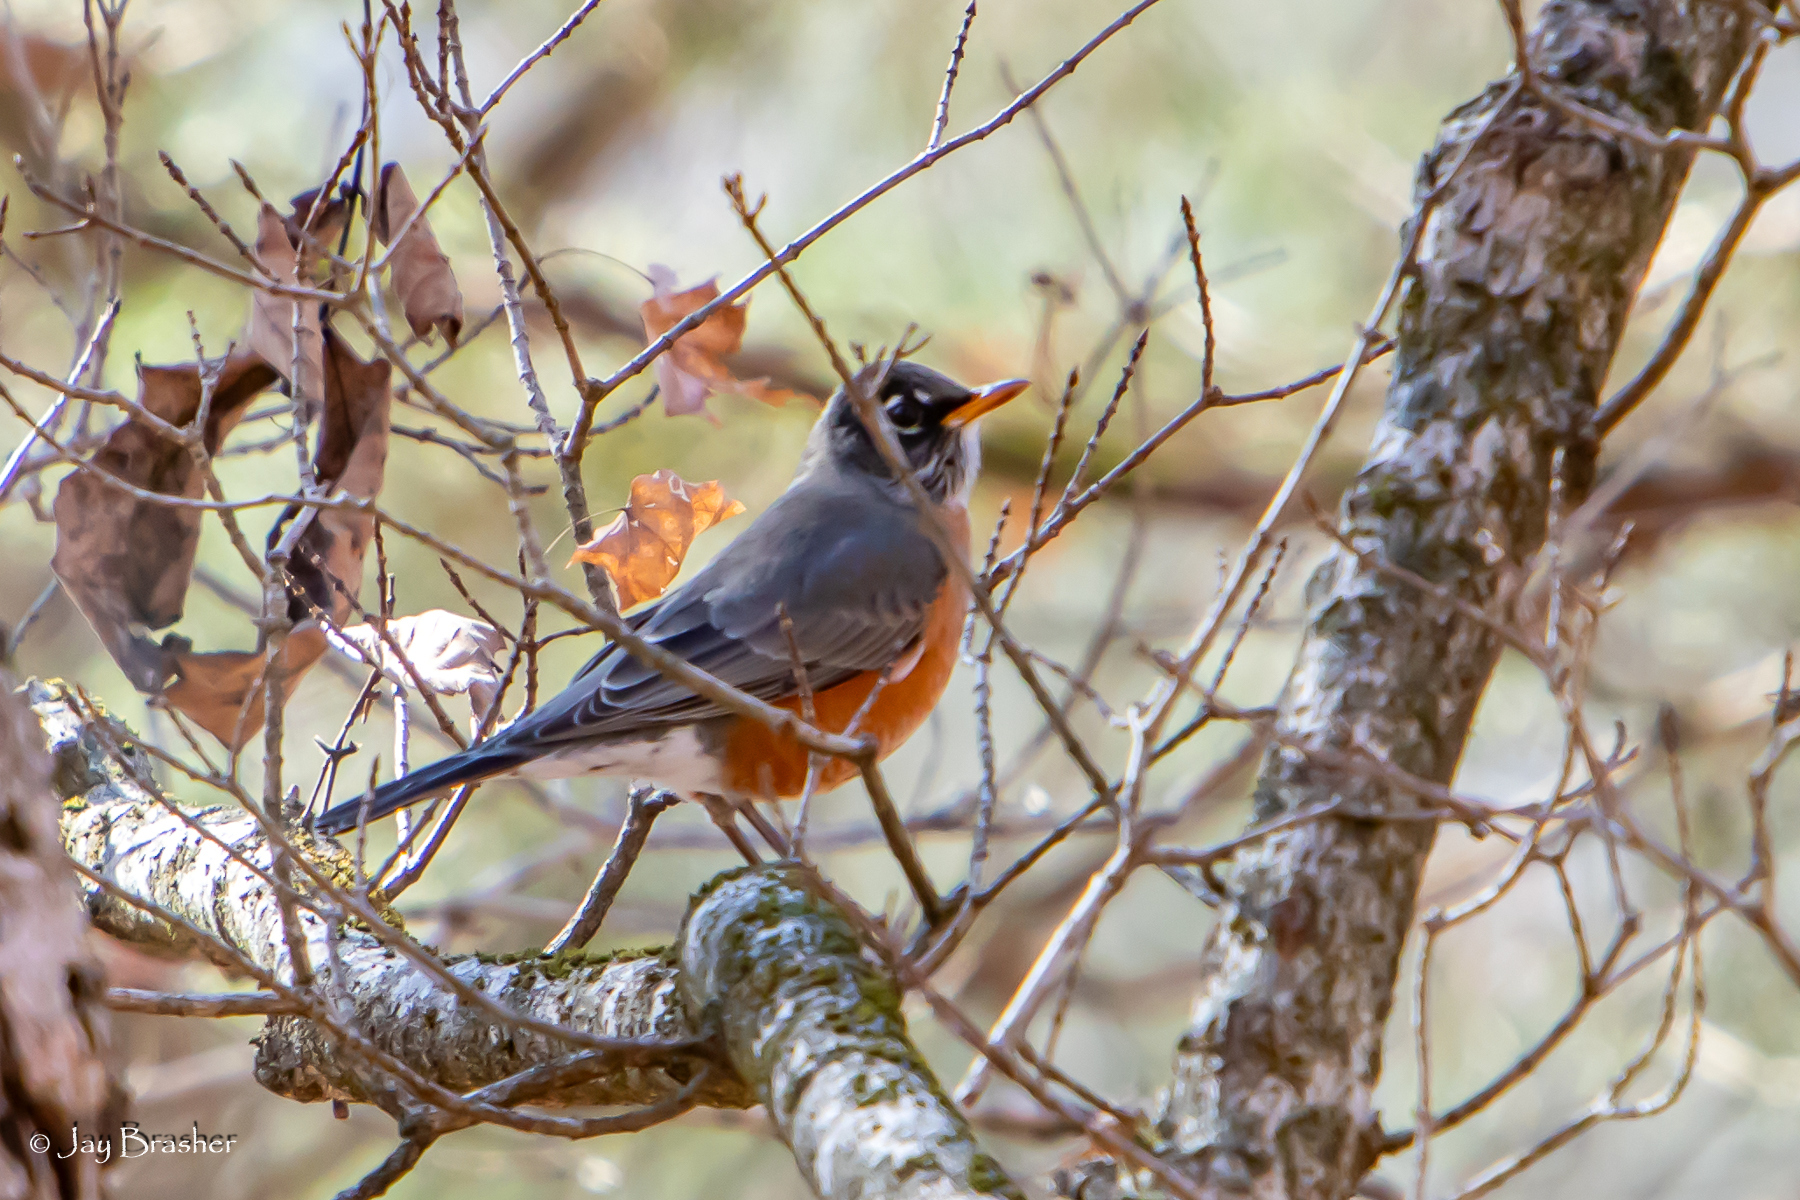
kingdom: Animalia
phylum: Chordata
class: Aves
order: Passeriformes
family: Turdidae
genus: Turdus
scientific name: Turdus migratorius
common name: American robin
